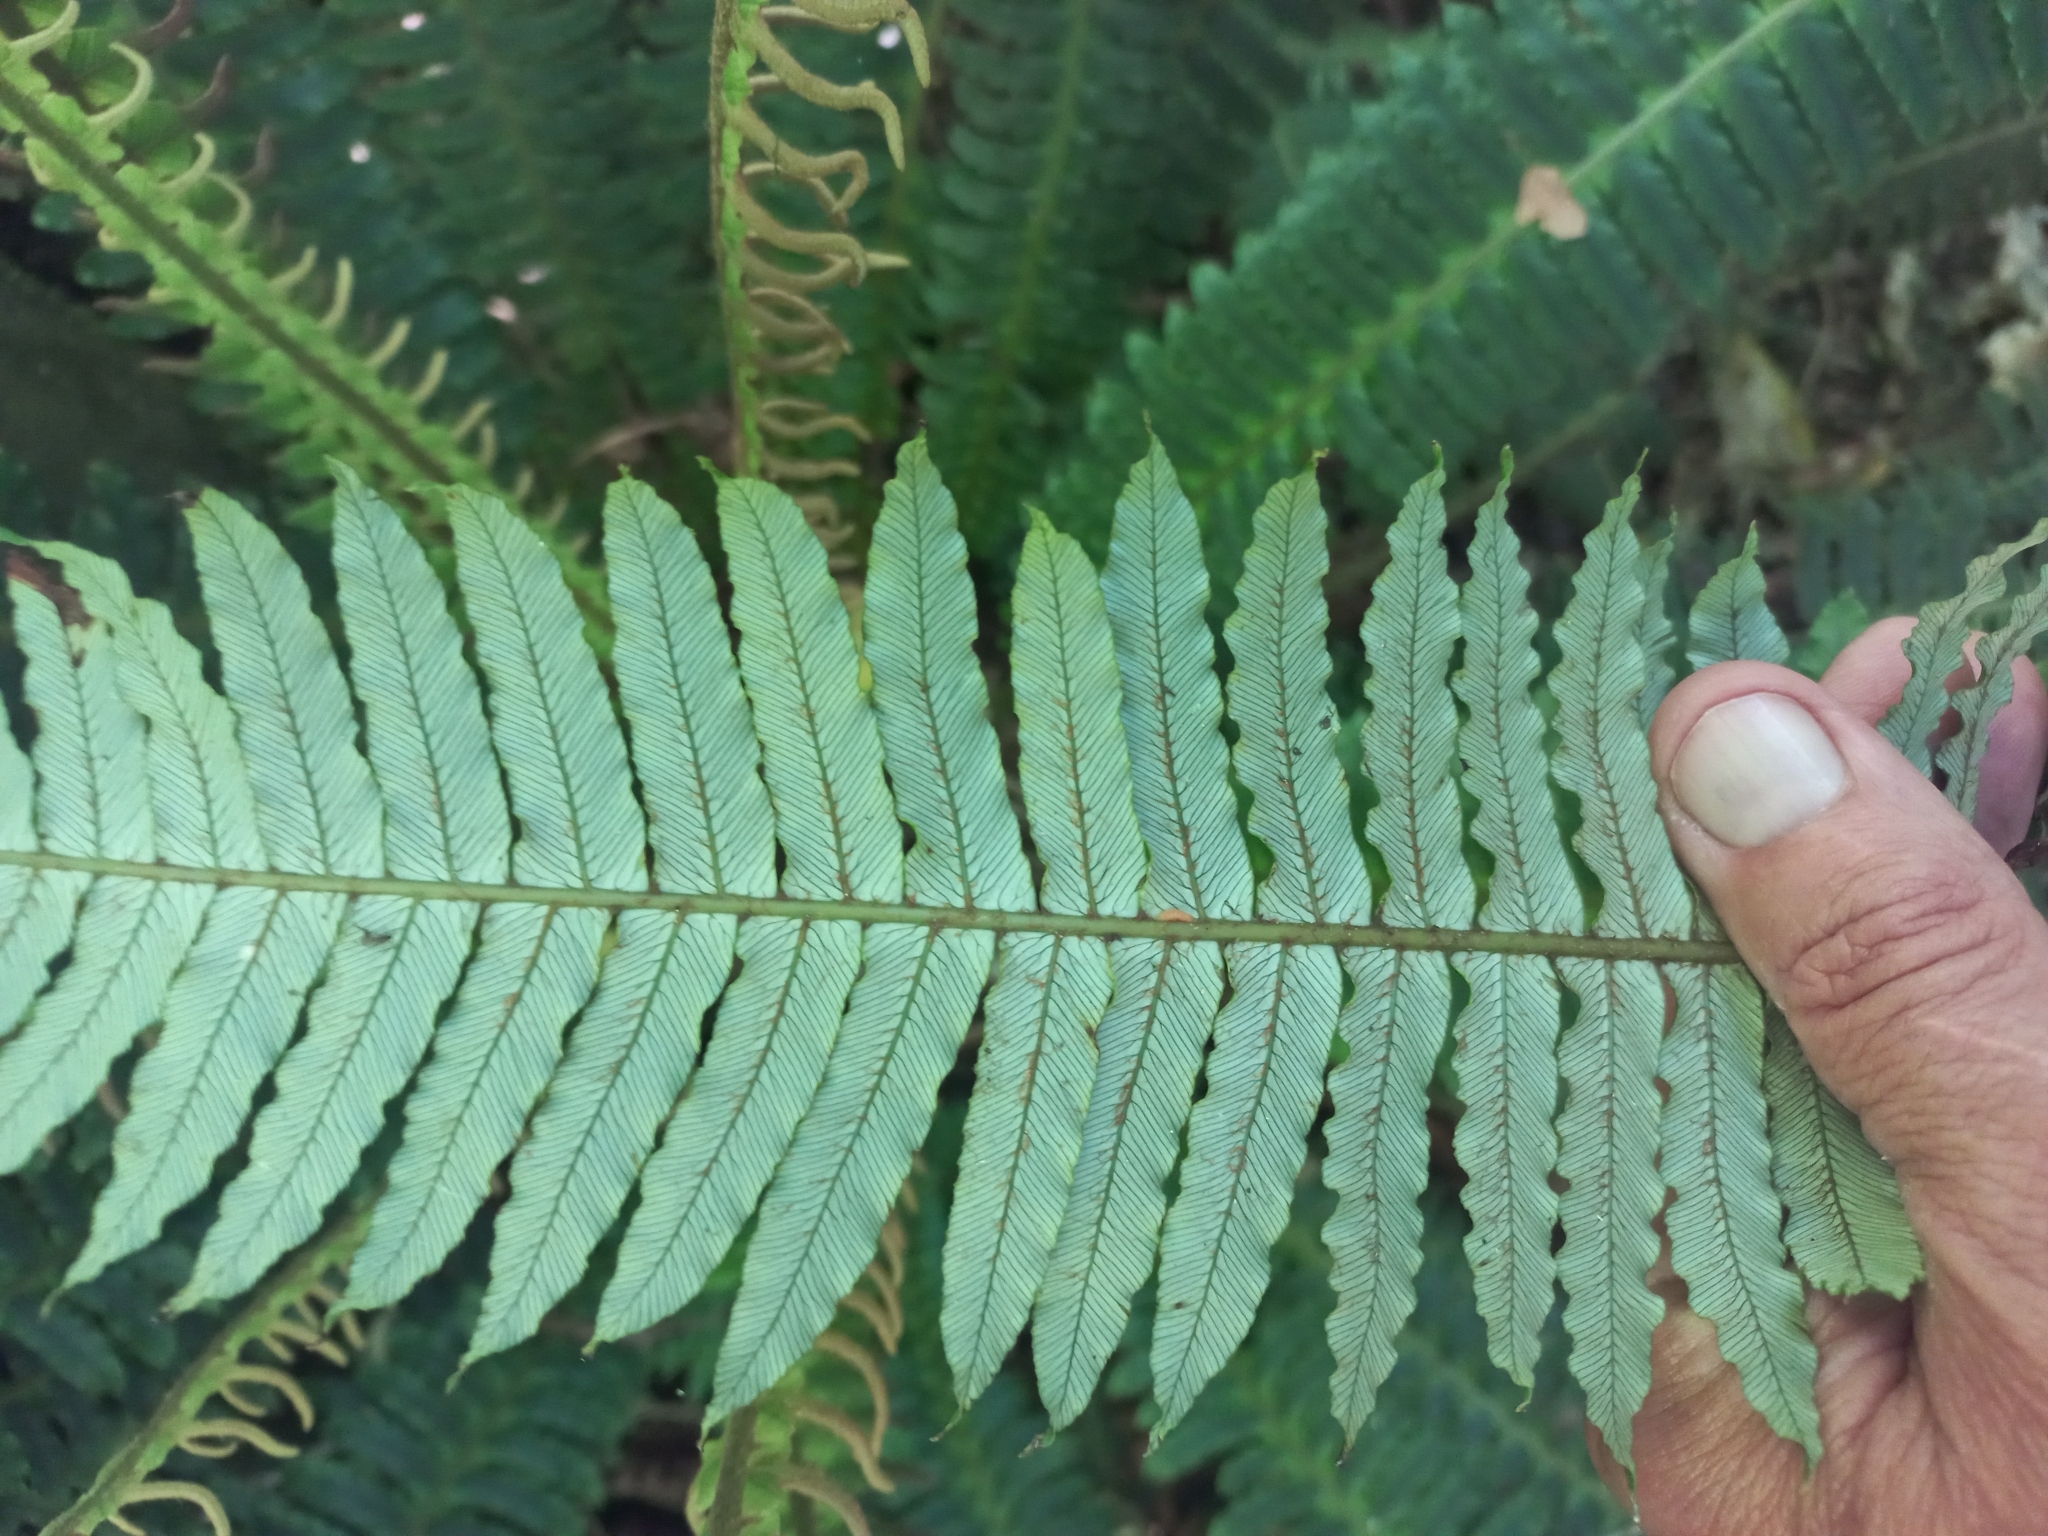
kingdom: Plantae
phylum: Tracheophyta
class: Polypodiopsida
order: Polypodiales
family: Blechnaceae
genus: Lomaria
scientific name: Lomaria discolor
